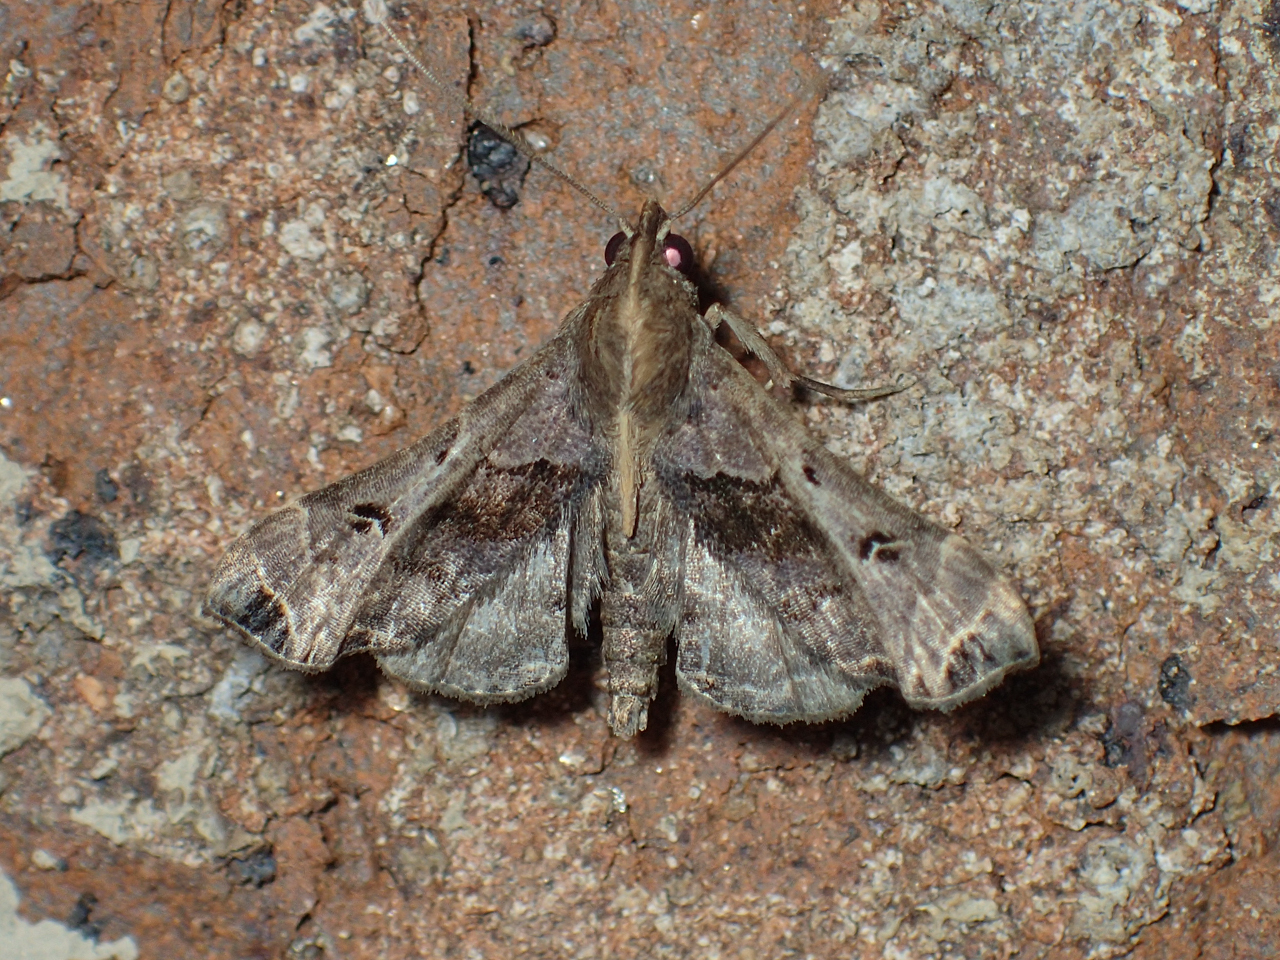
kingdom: Animalia
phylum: Arthropoda
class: Insecta
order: Lepidoptera
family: Erebidae
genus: Palthis
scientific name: Palthis asopialis
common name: Faint-spotted palthis moth
